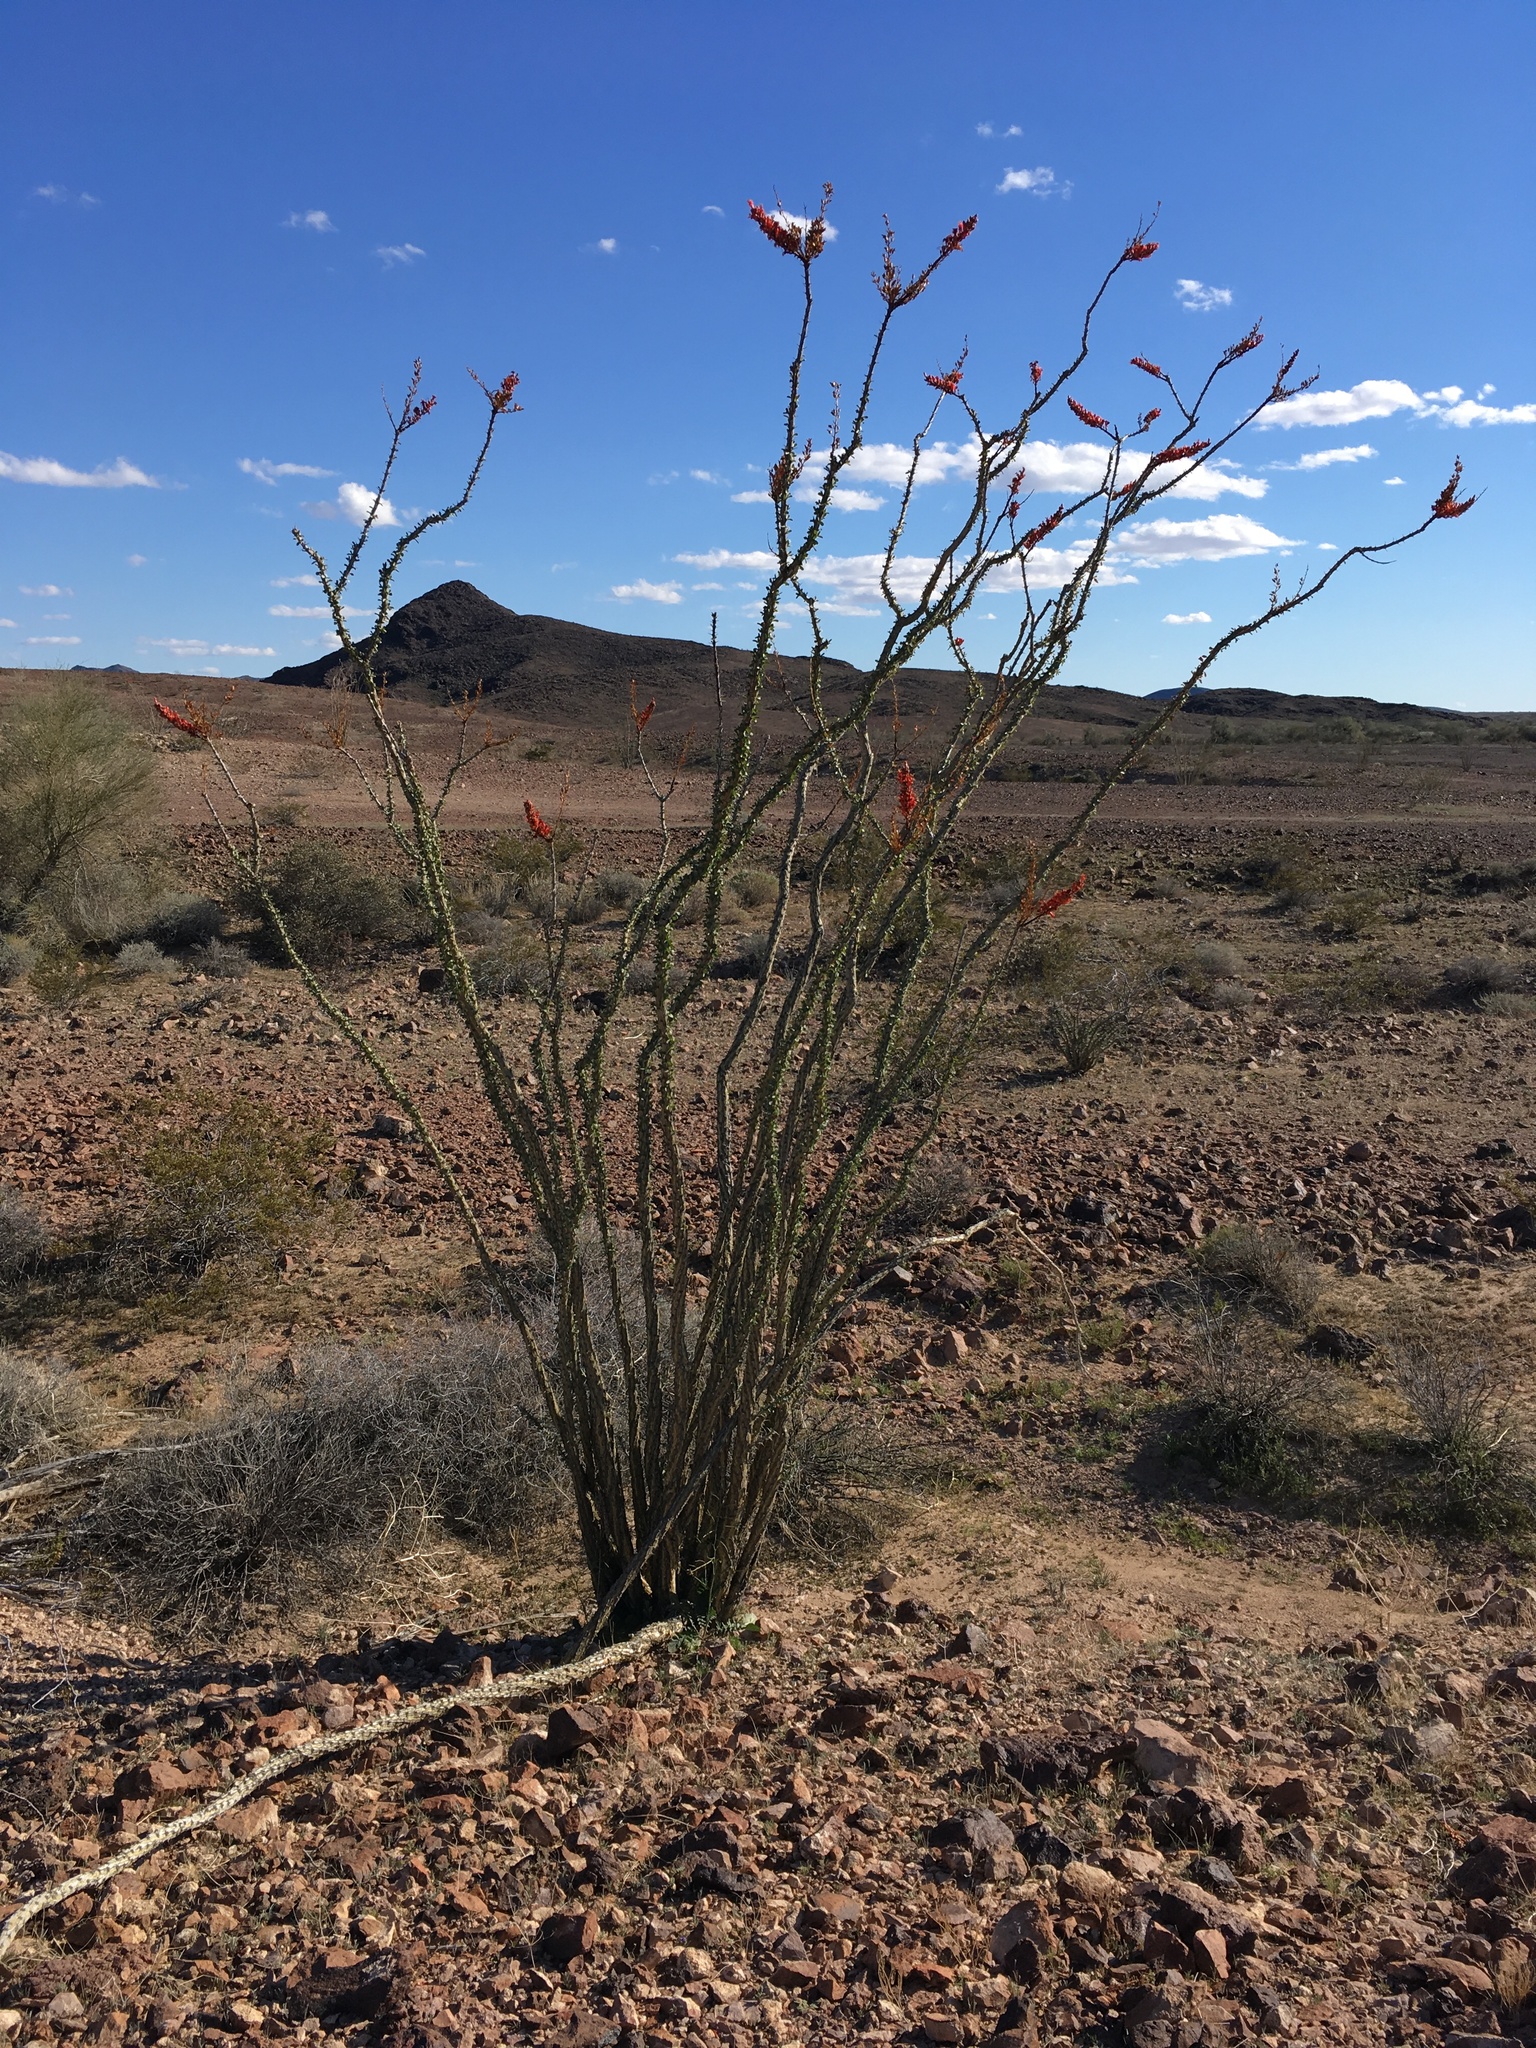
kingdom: Plantae
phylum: Tracheophyta
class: Magnoliopsida
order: Ericales
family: Fouquieriaceae
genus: Fouquieria
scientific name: Fouquieria splendens
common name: Vine-cactus
